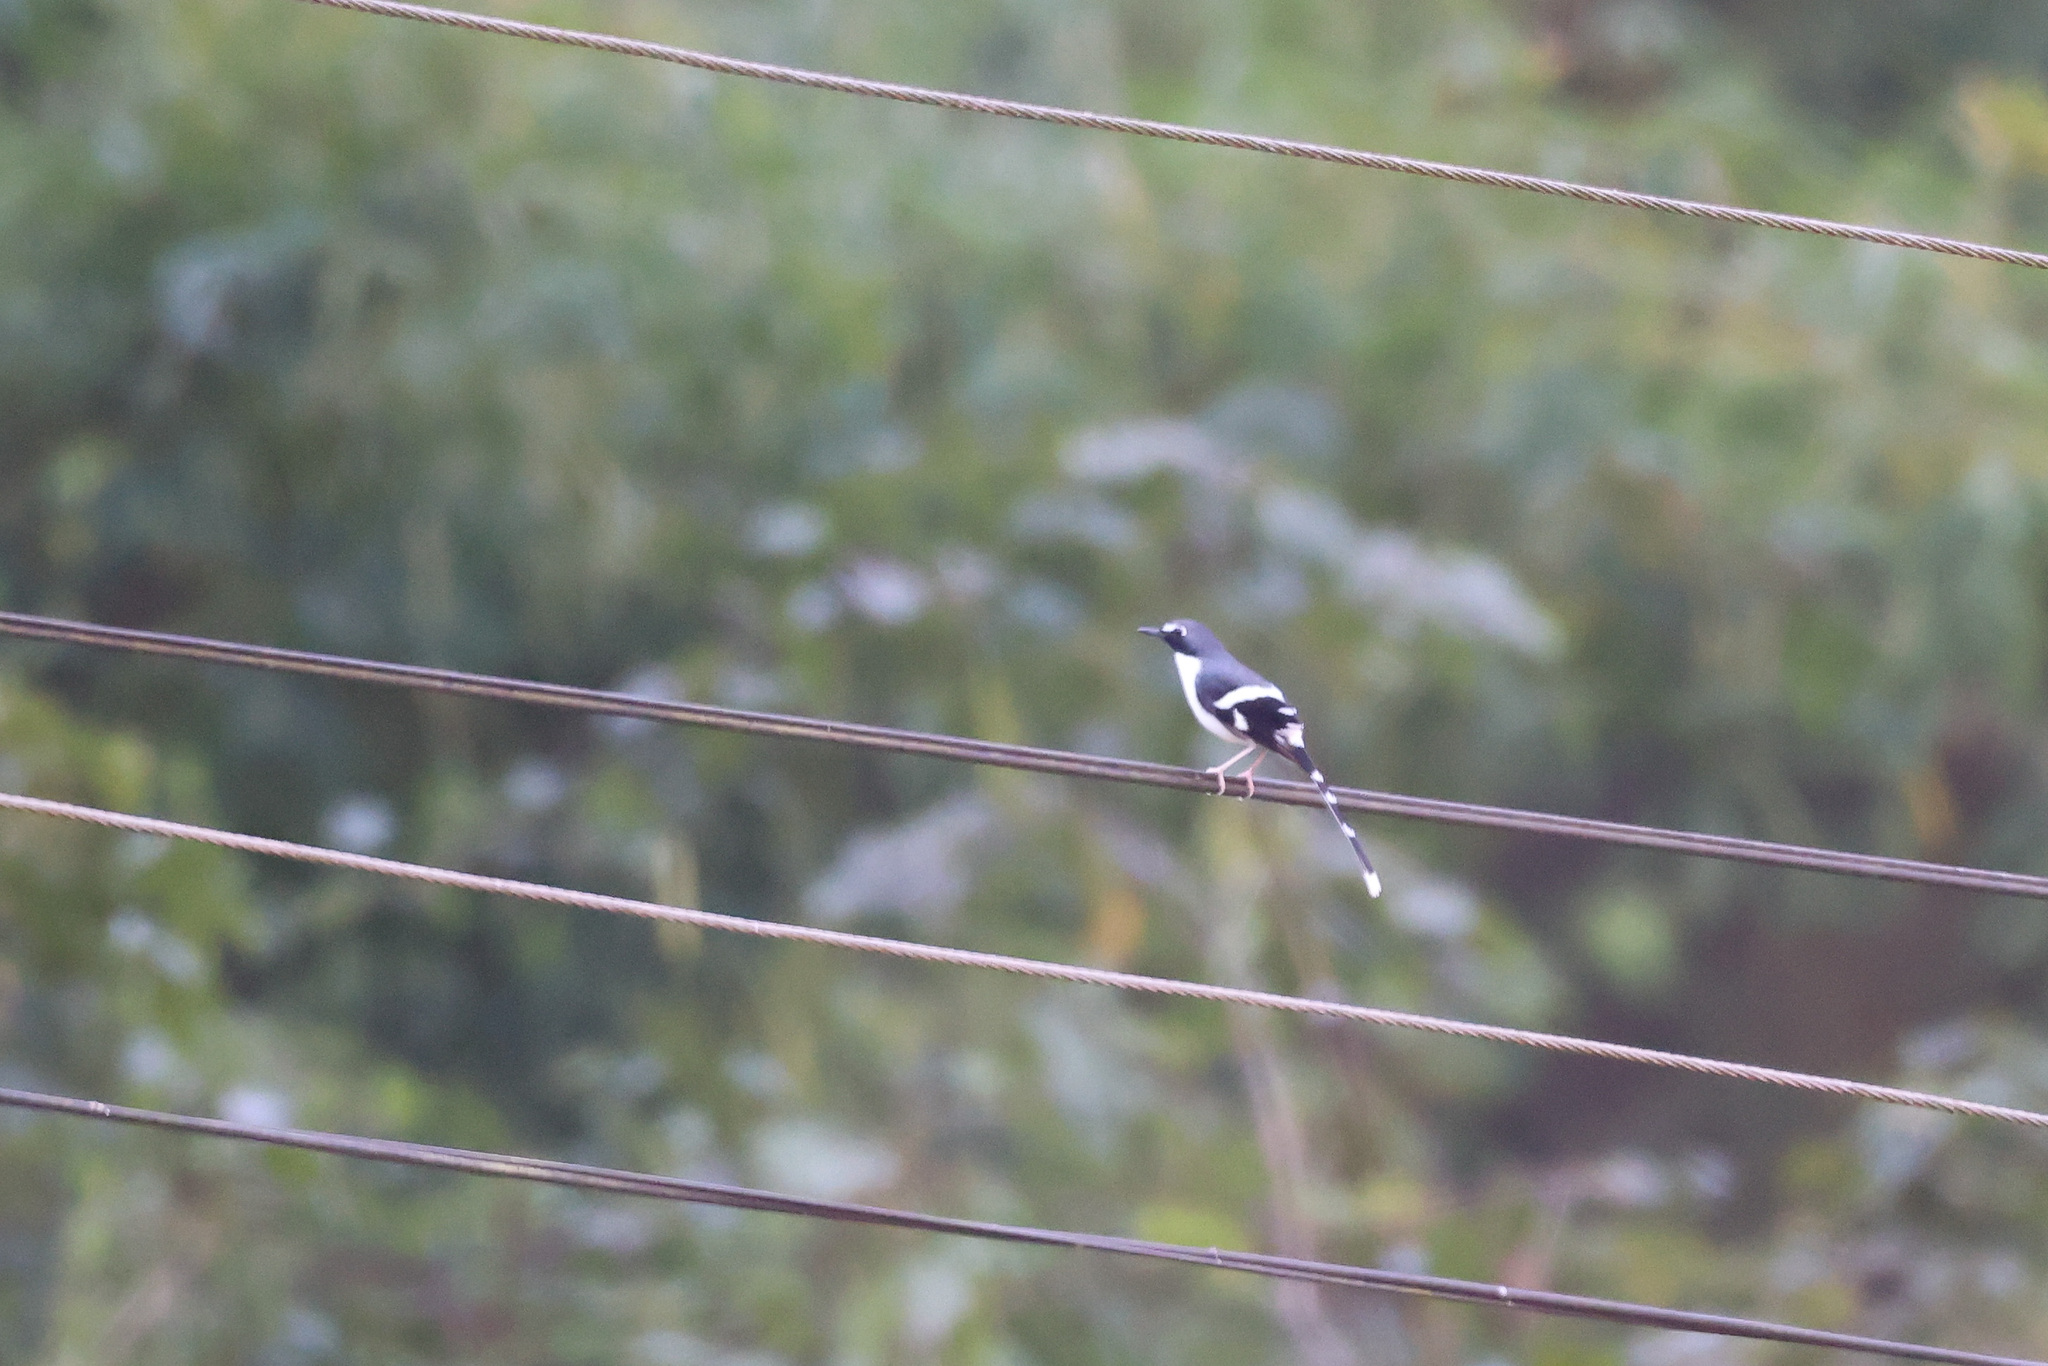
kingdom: Animalia
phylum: Chordata
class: Aves
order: Passeriformes
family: Muscicapidae
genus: Enicurus
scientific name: Enicurus schistaceus
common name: Slaty-backed forktail
